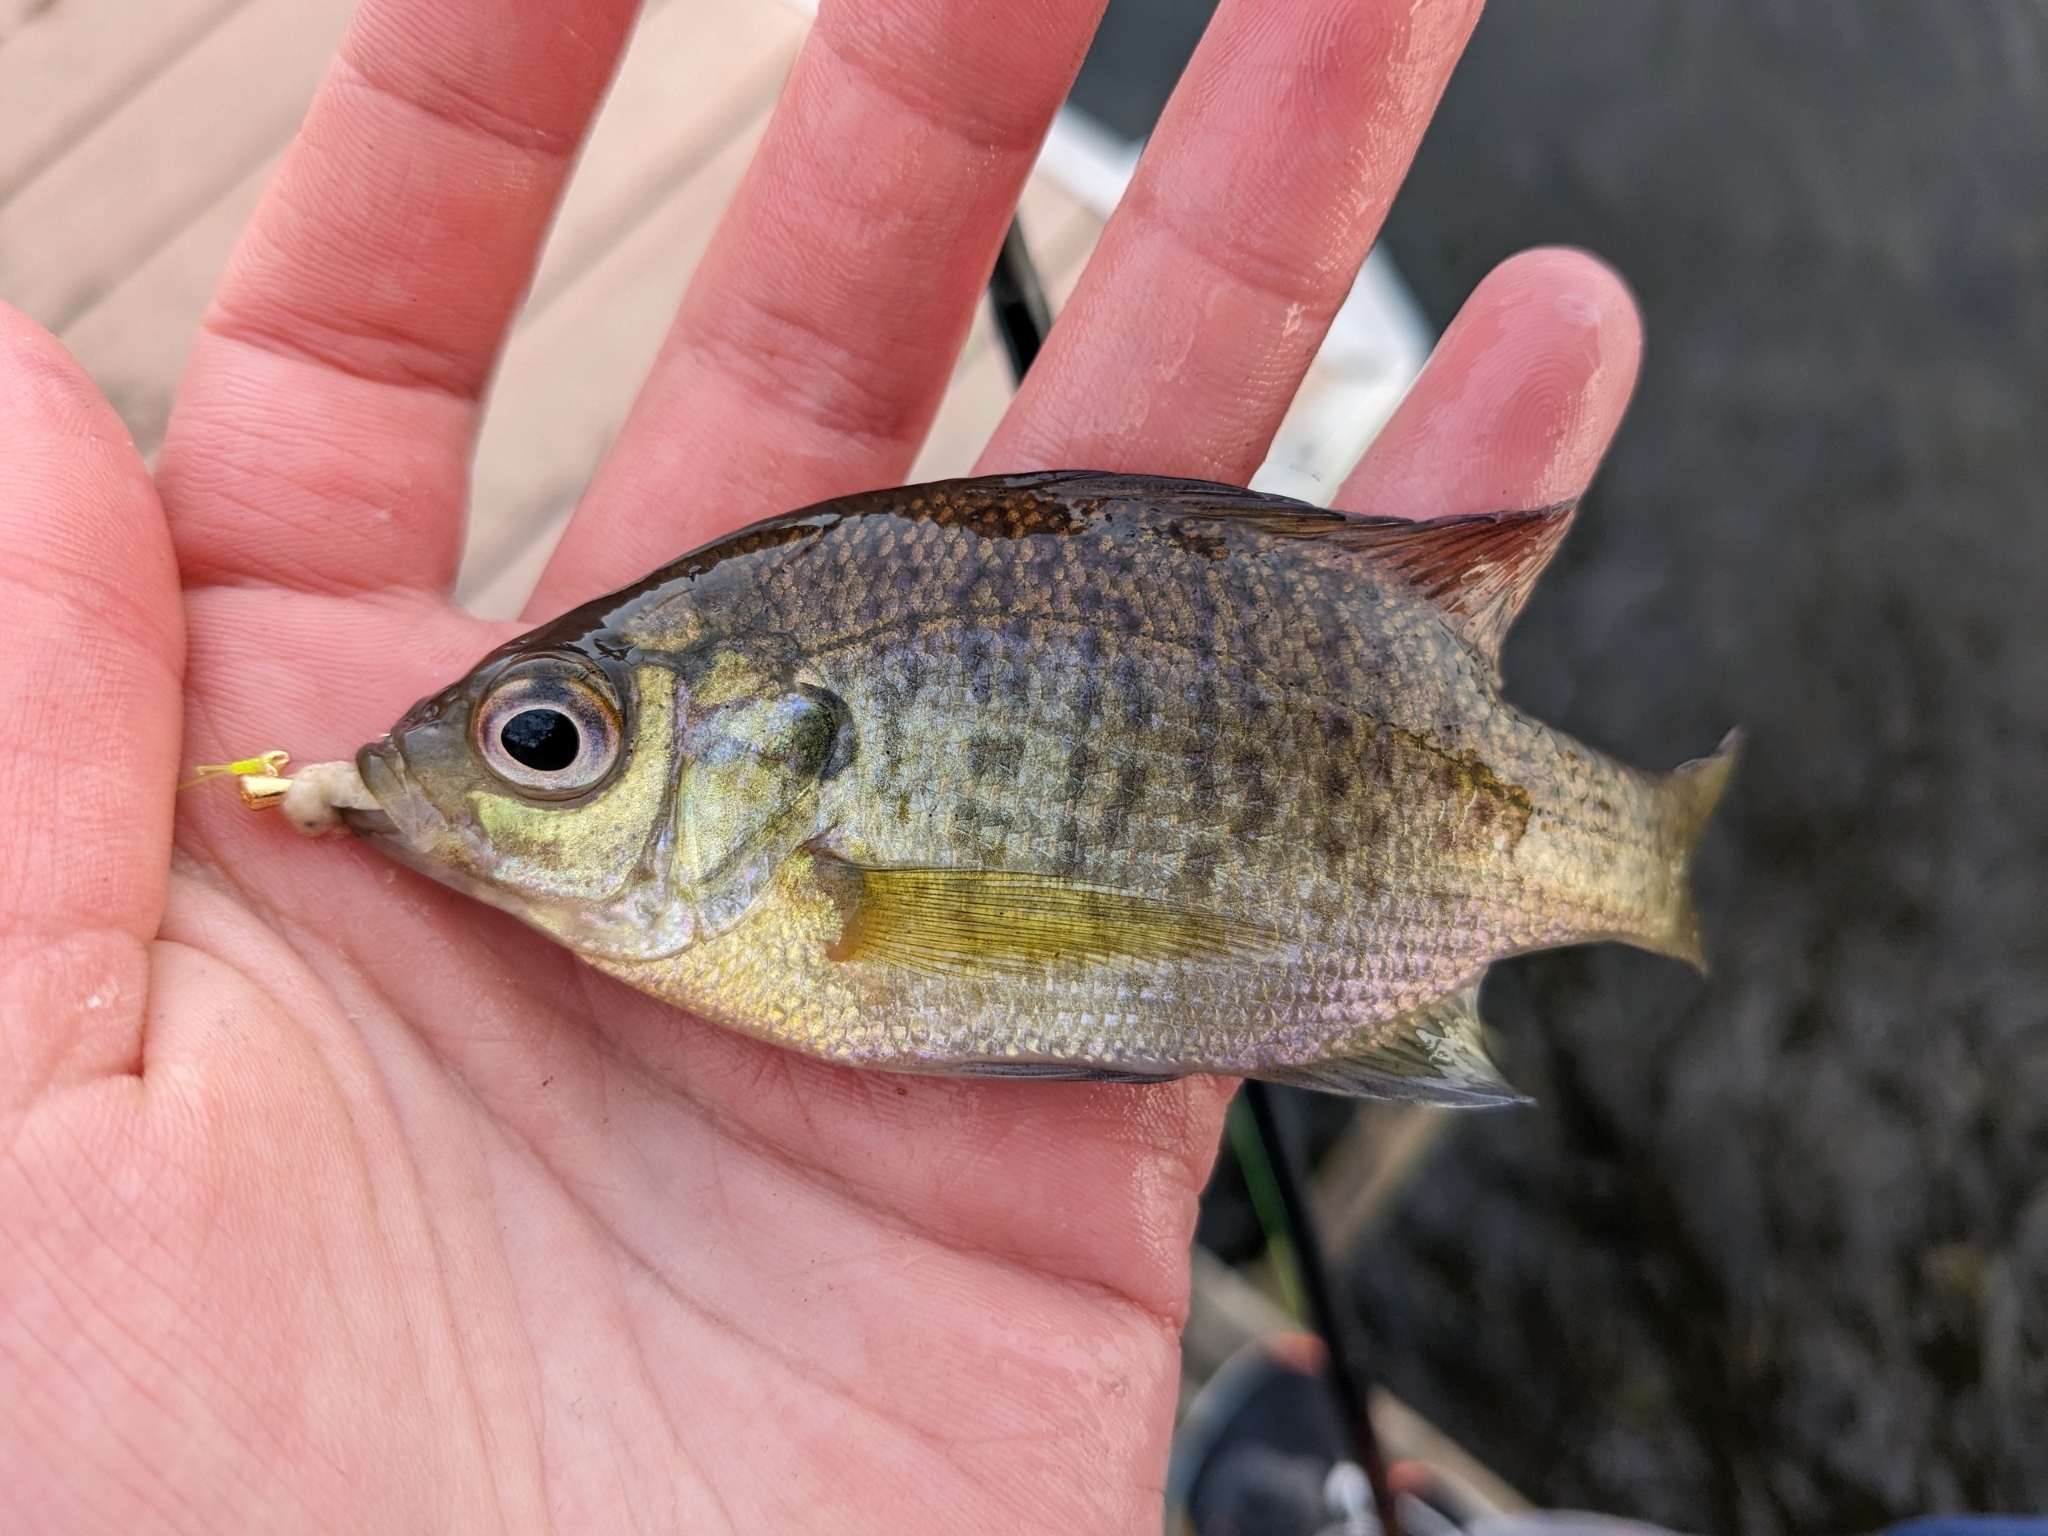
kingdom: Animalia
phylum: Chordata
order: Perciformes
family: Centrarchidae
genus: Lepomis
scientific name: Lepomis macrochirus
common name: Bluegill
